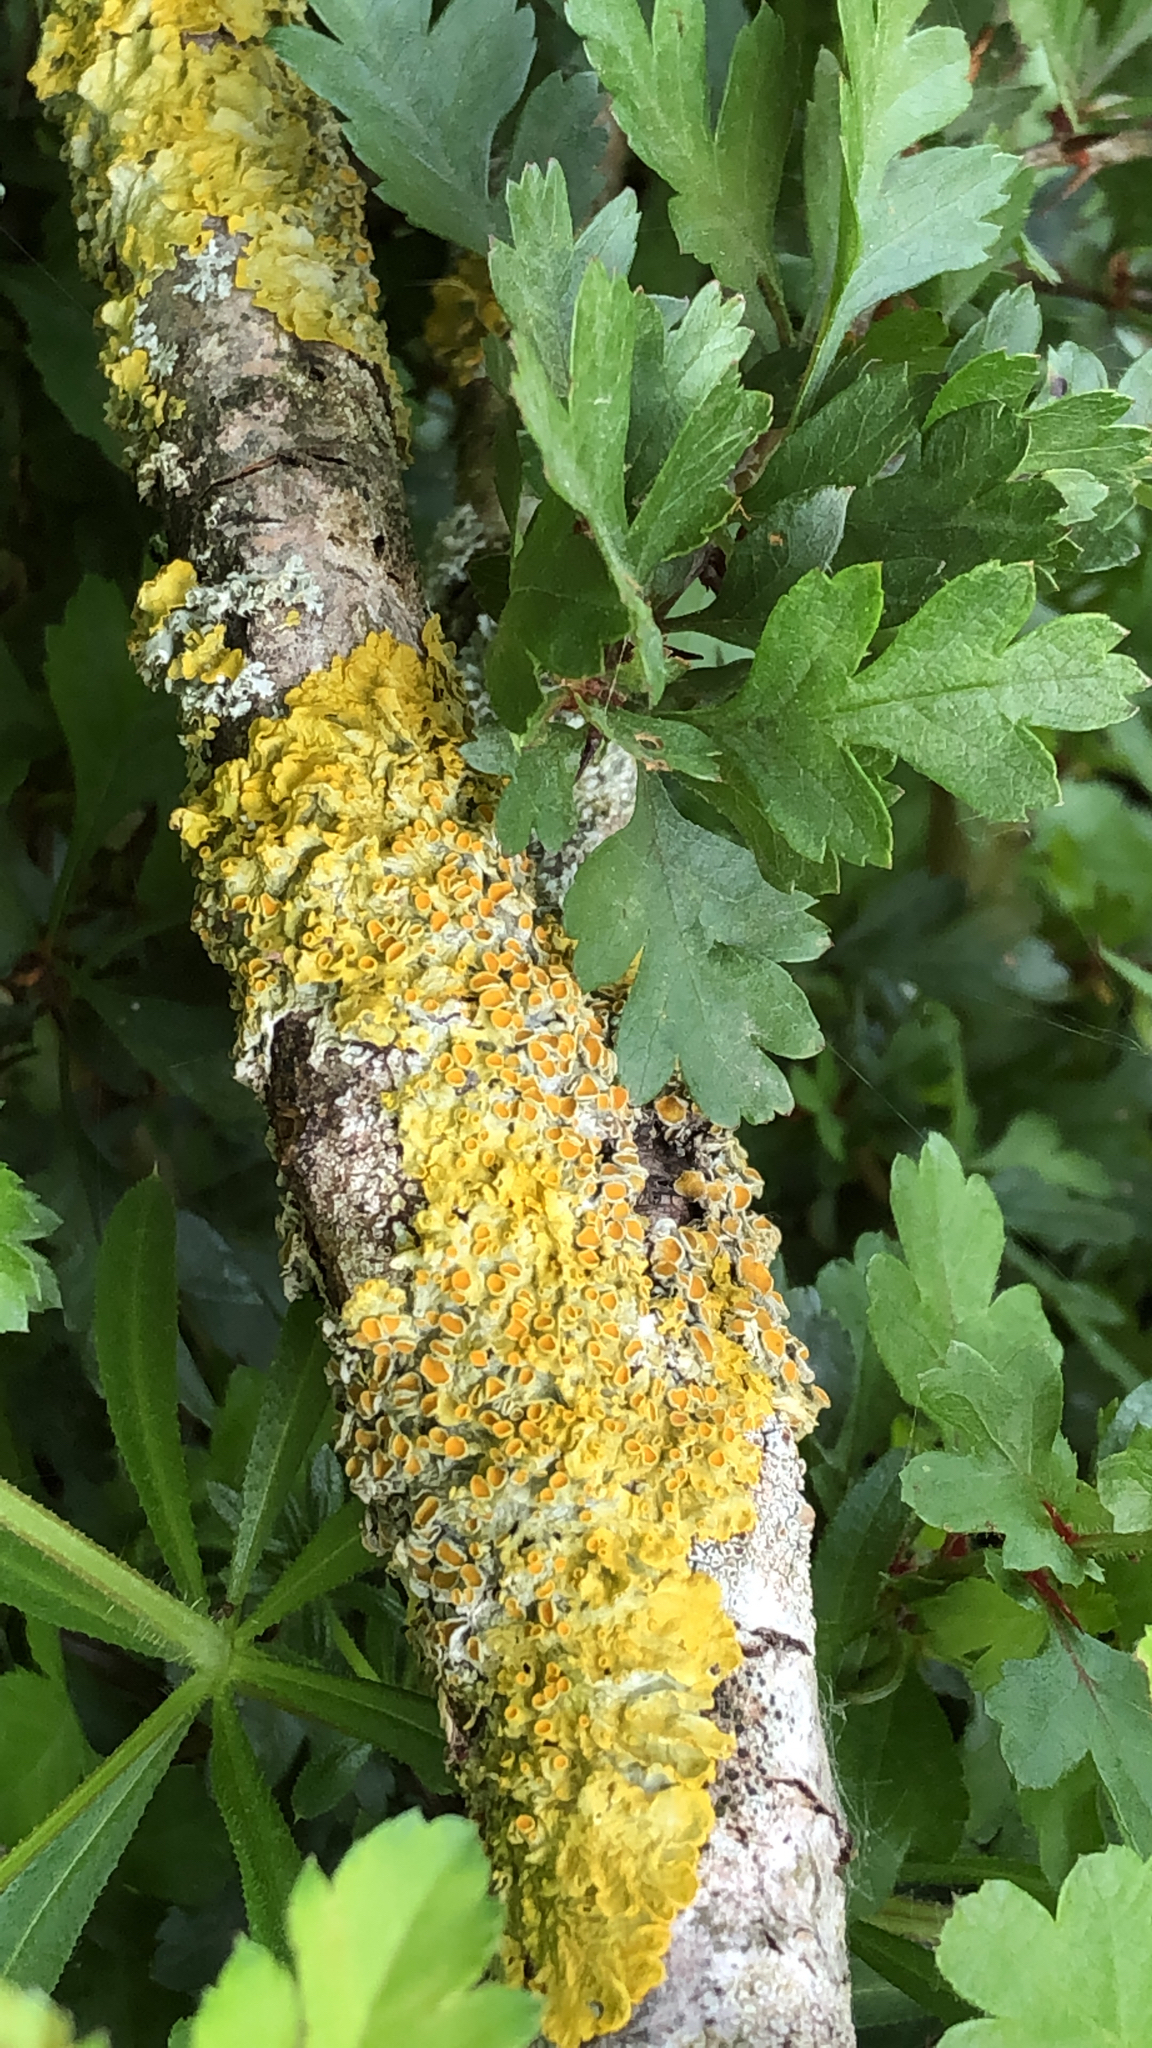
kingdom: Fungi
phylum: Ascomycota
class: Lecanoromycetes
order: Teloschistales
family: Teloschistaceae
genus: Xanthoria
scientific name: Xanthoria parietina
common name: Common orange lichen
